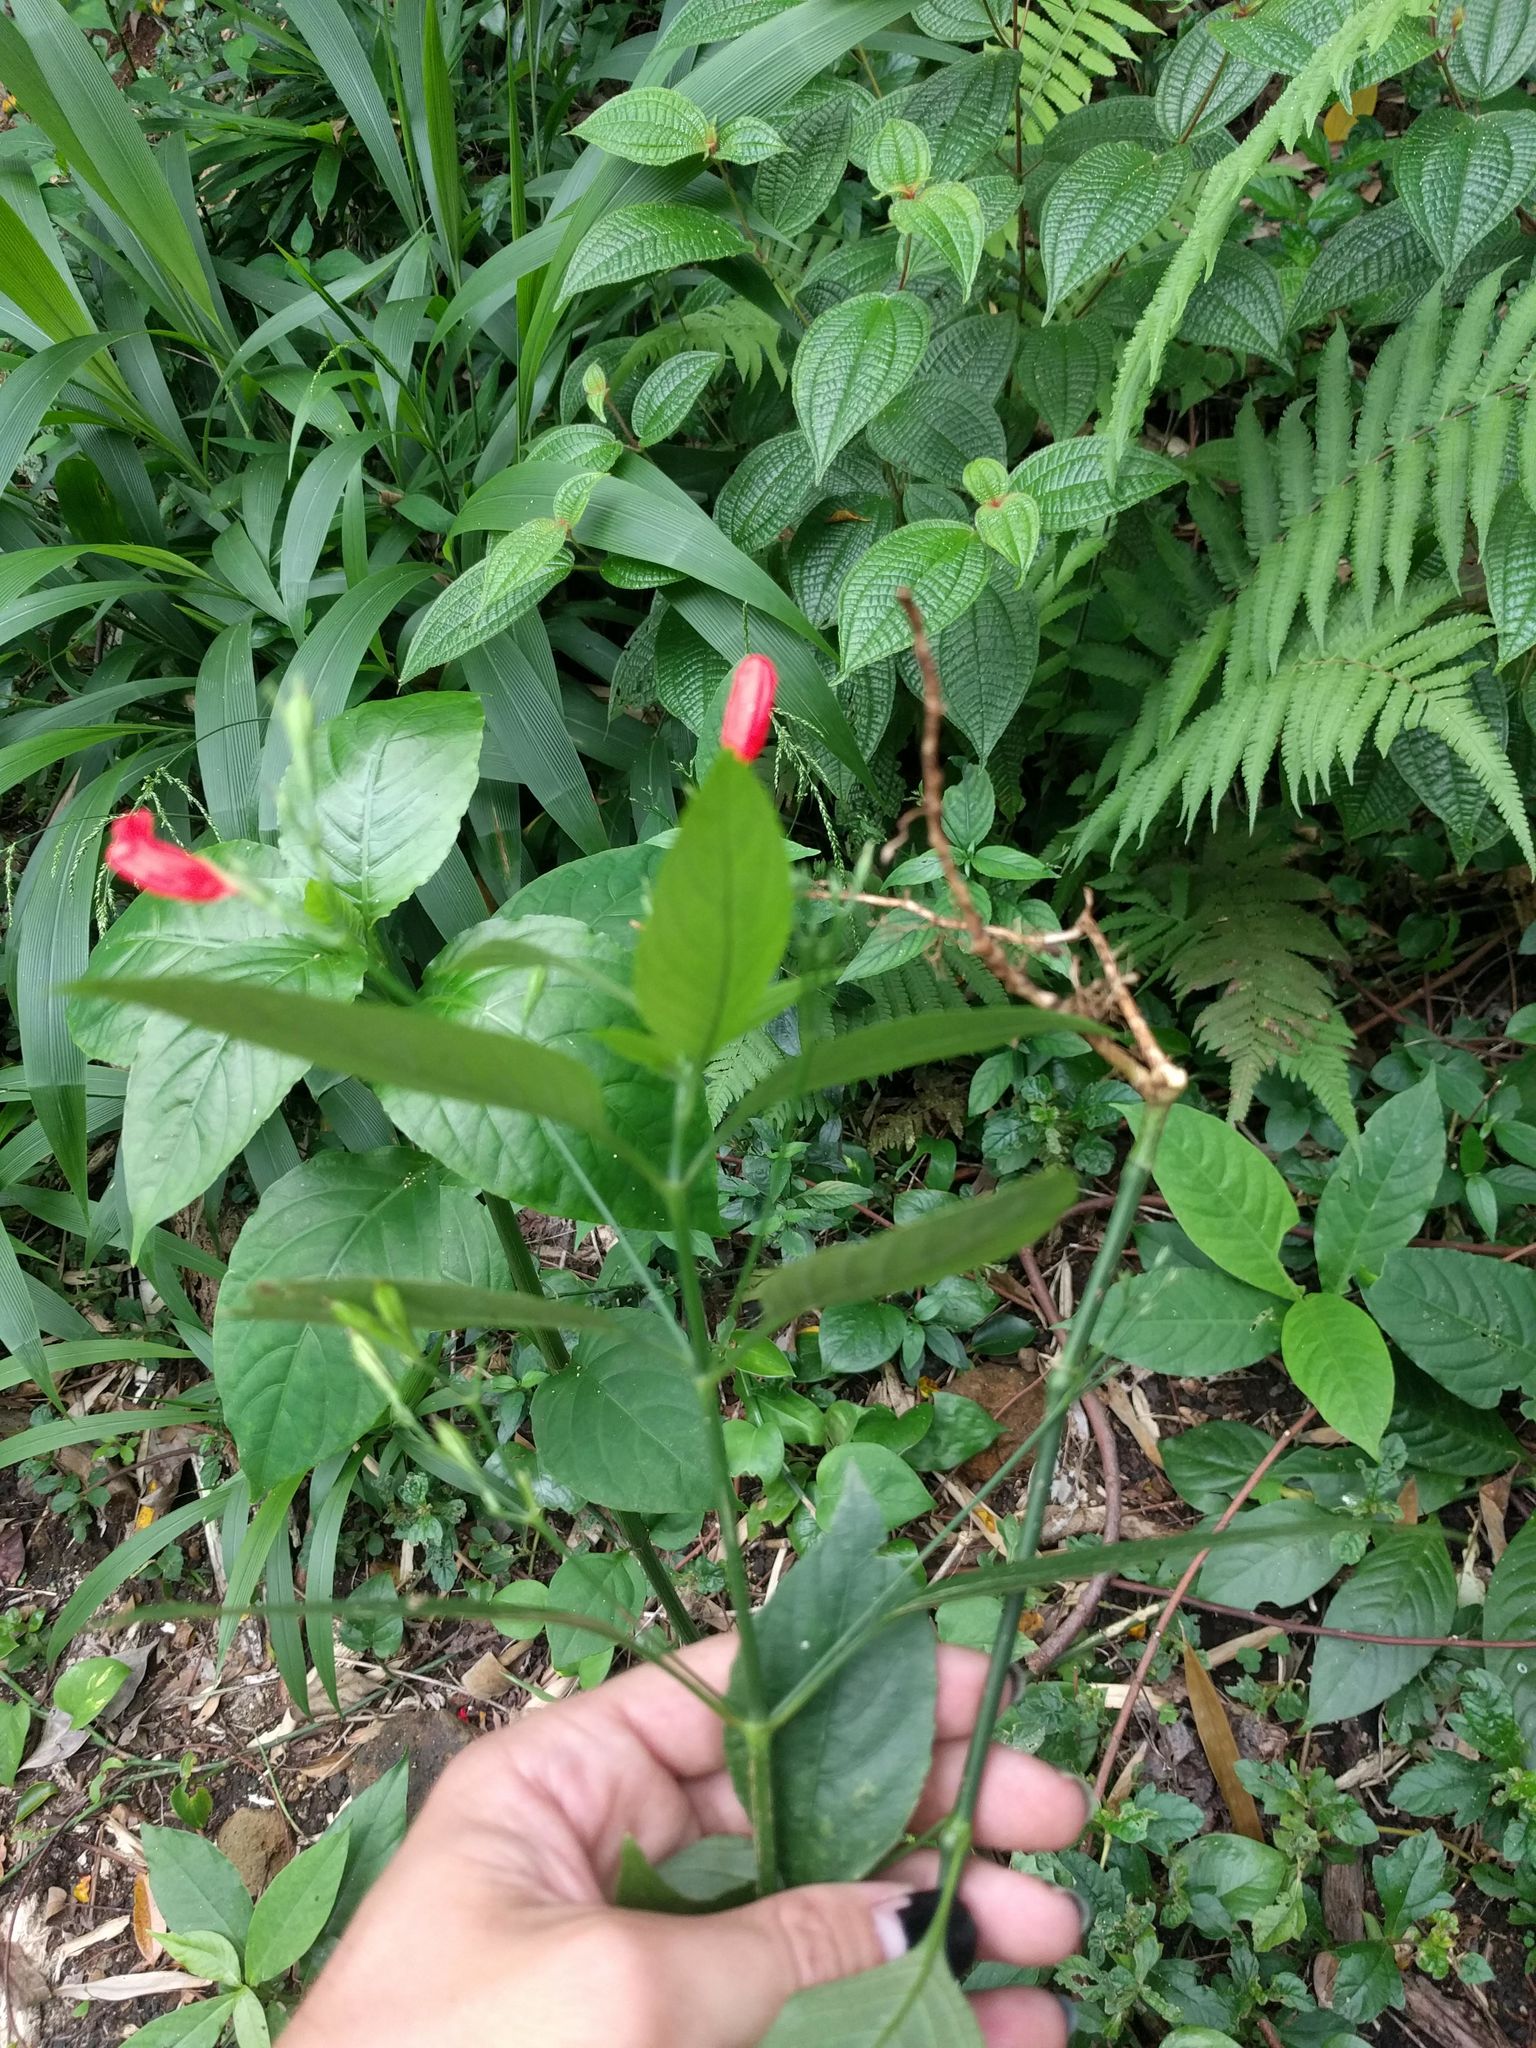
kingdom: Plantae
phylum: Tracheophyta
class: Magnoliopsida
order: Lamiales
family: Acanthaceae
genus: Ruellia
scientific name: Ruellia brevifolia
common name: Tropical wild petunia
